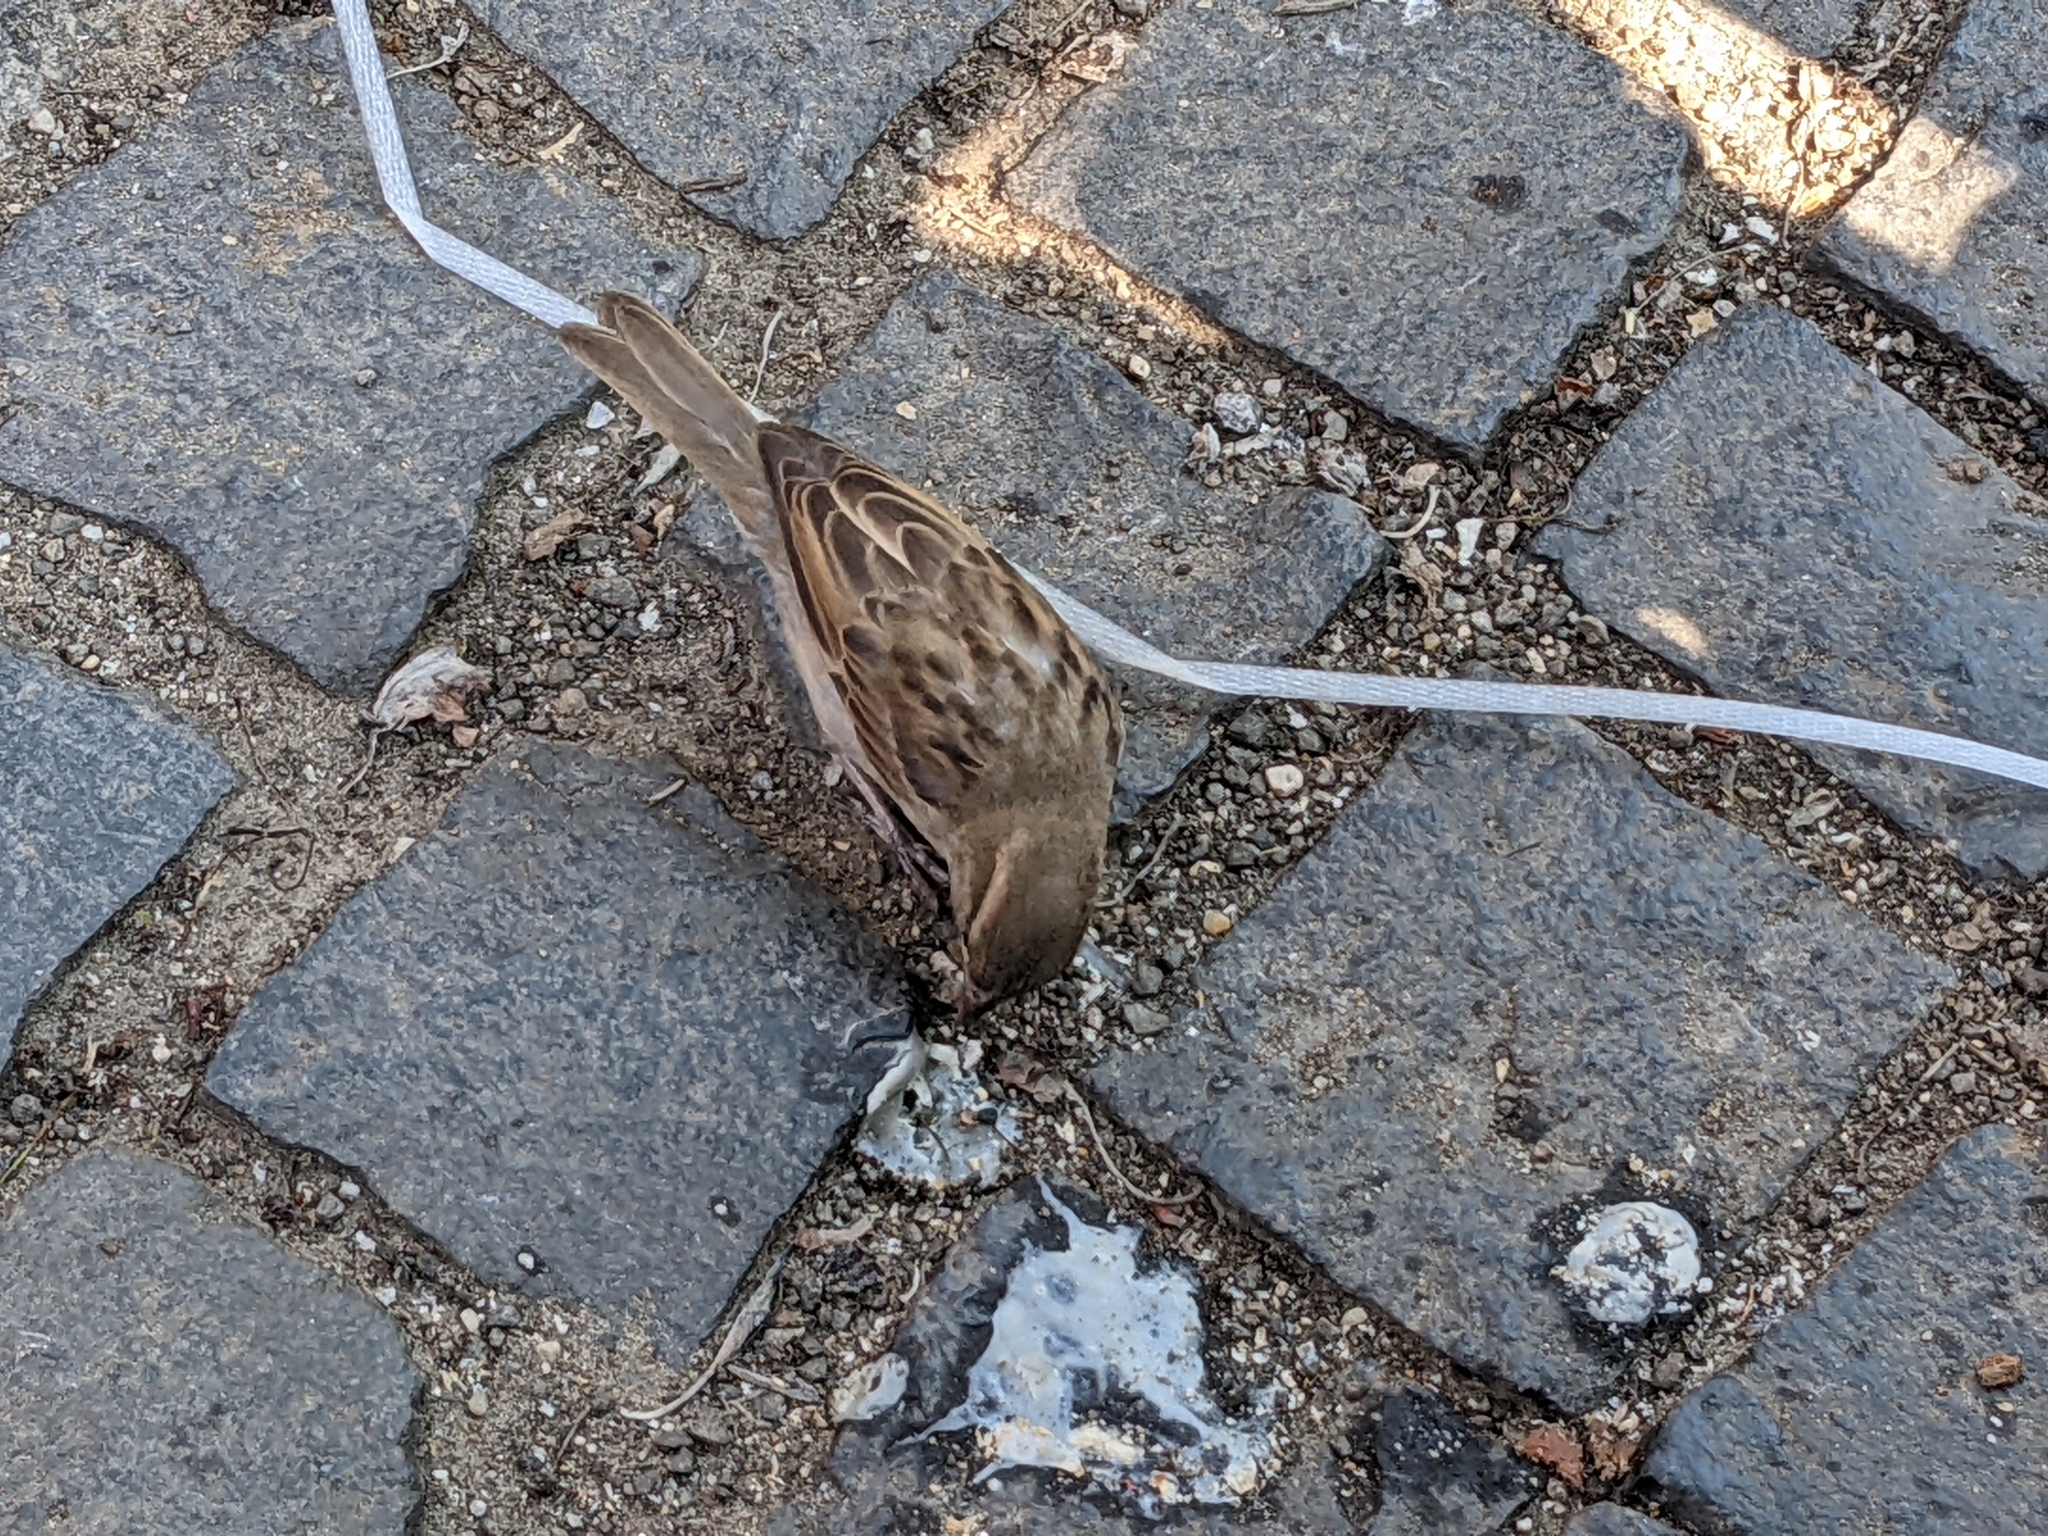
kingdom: Animalia
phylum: Chordata
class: Aves
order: Passeriformes
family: Passeridae
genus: Passer
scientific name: Passer domesticus
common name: House sparrow
